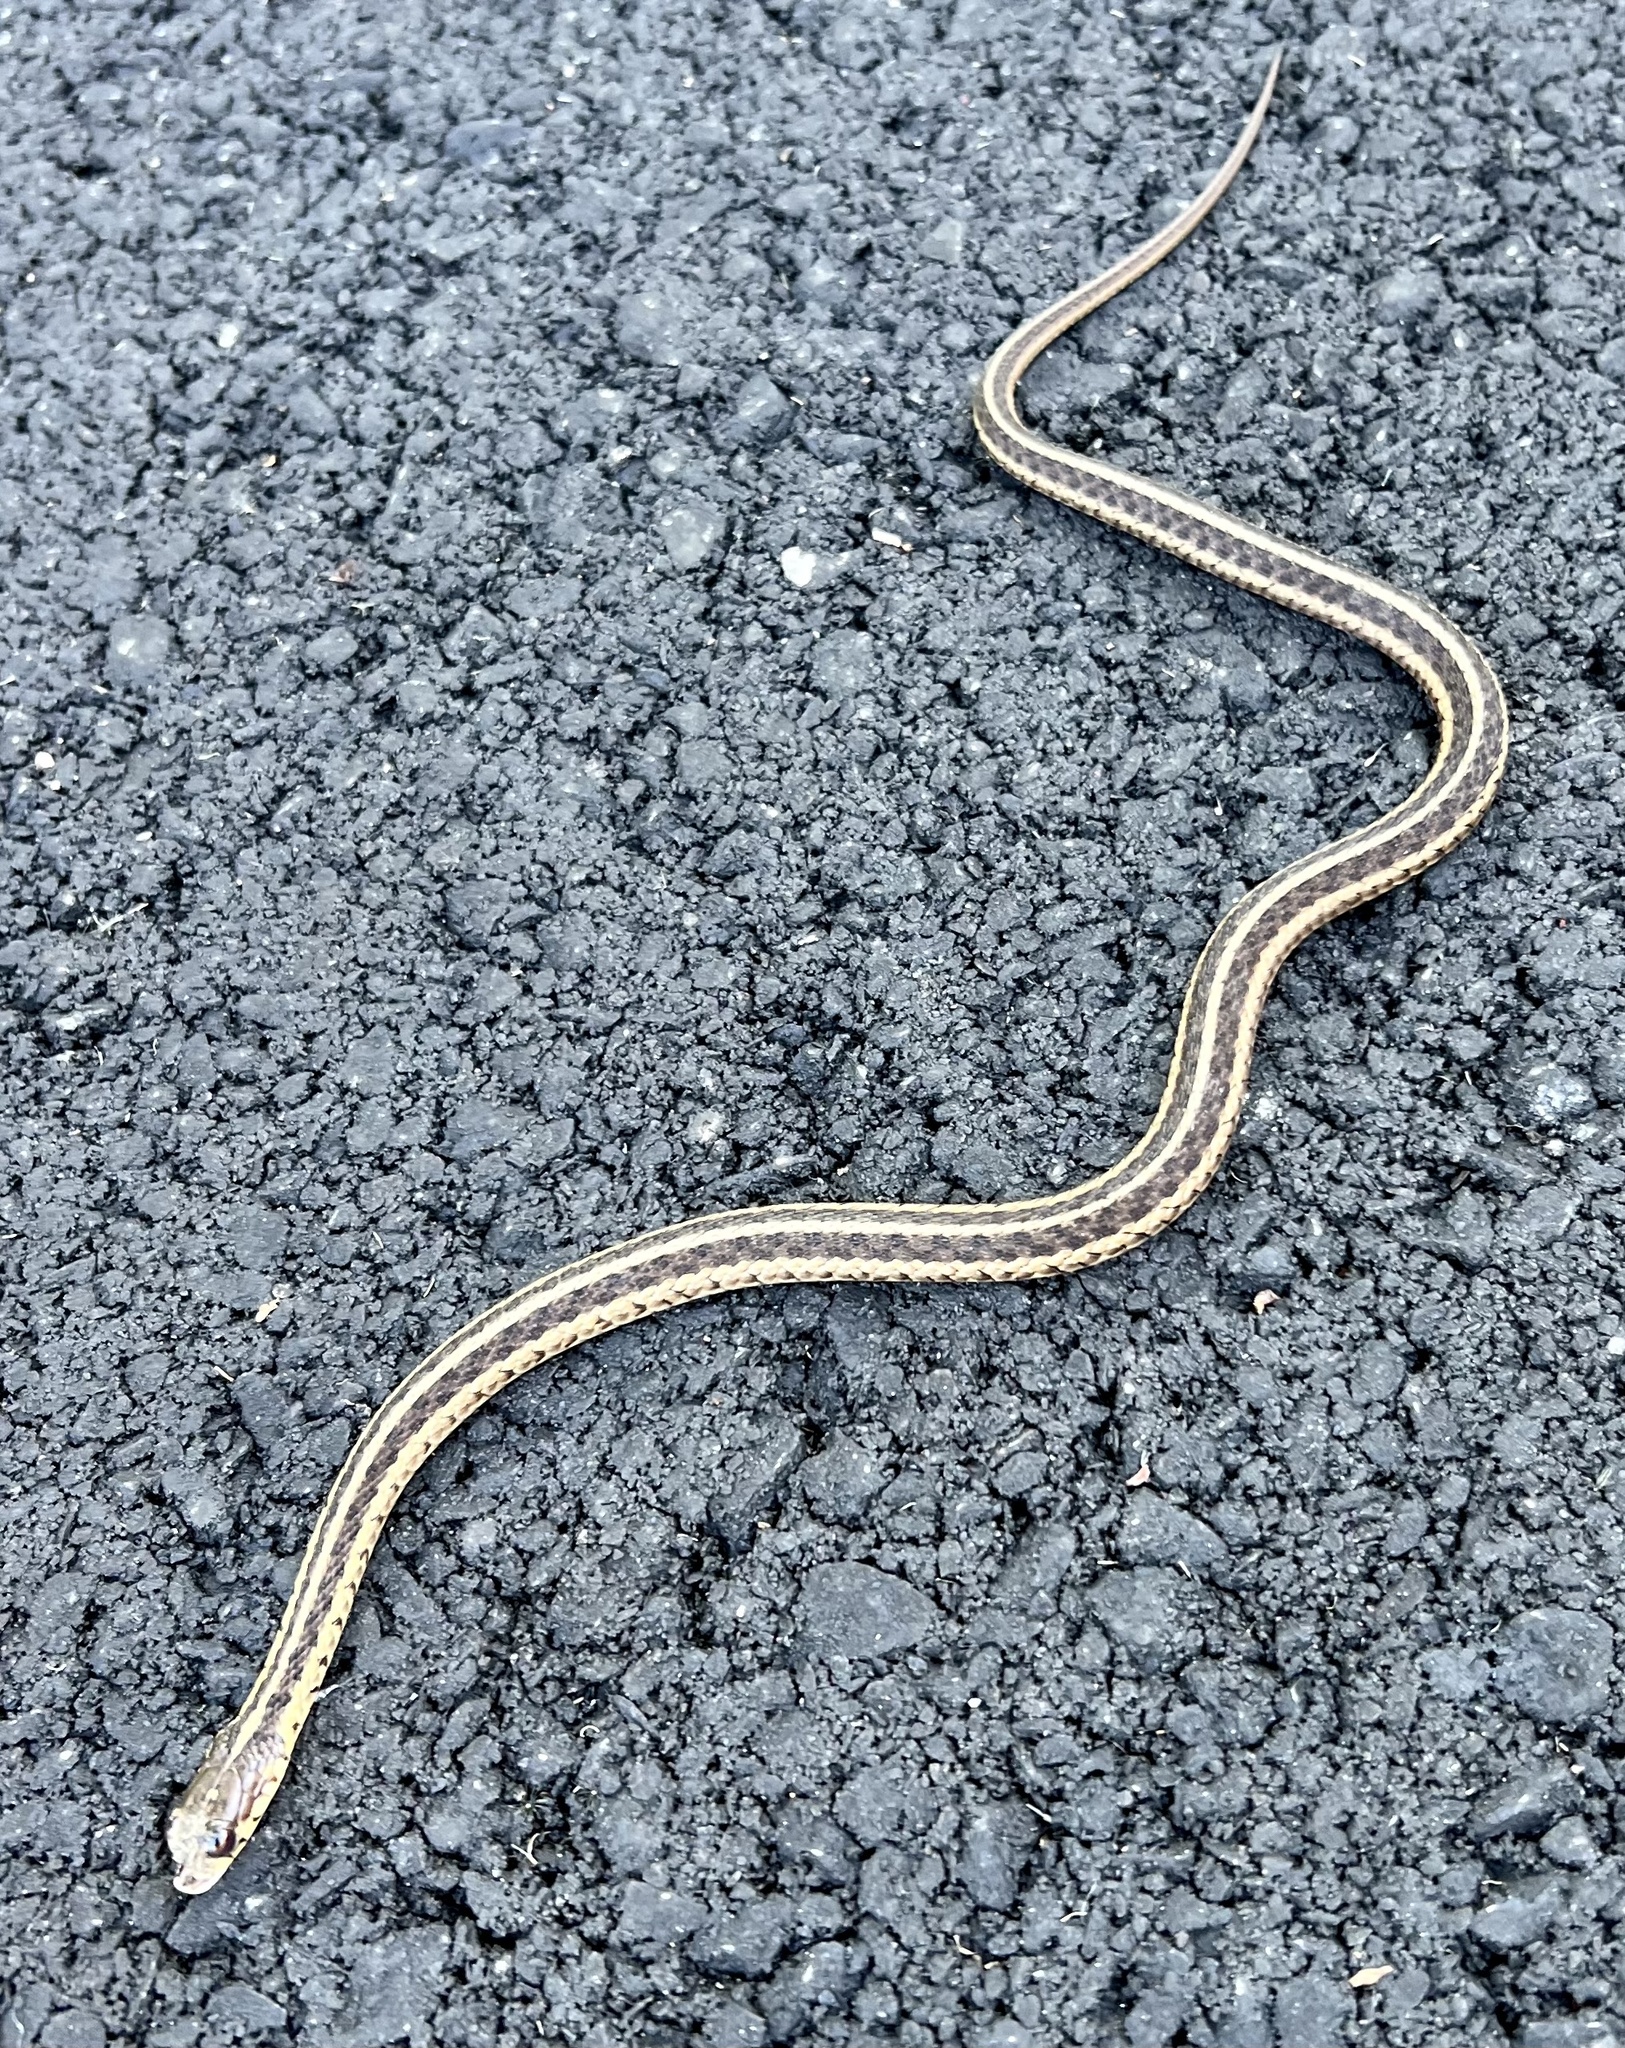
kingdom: Animalia
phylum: Chordata
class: Squamata
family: Colubridae
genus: Thamnophis
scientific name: Thamnophis sirtalis
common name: Common garter snake
